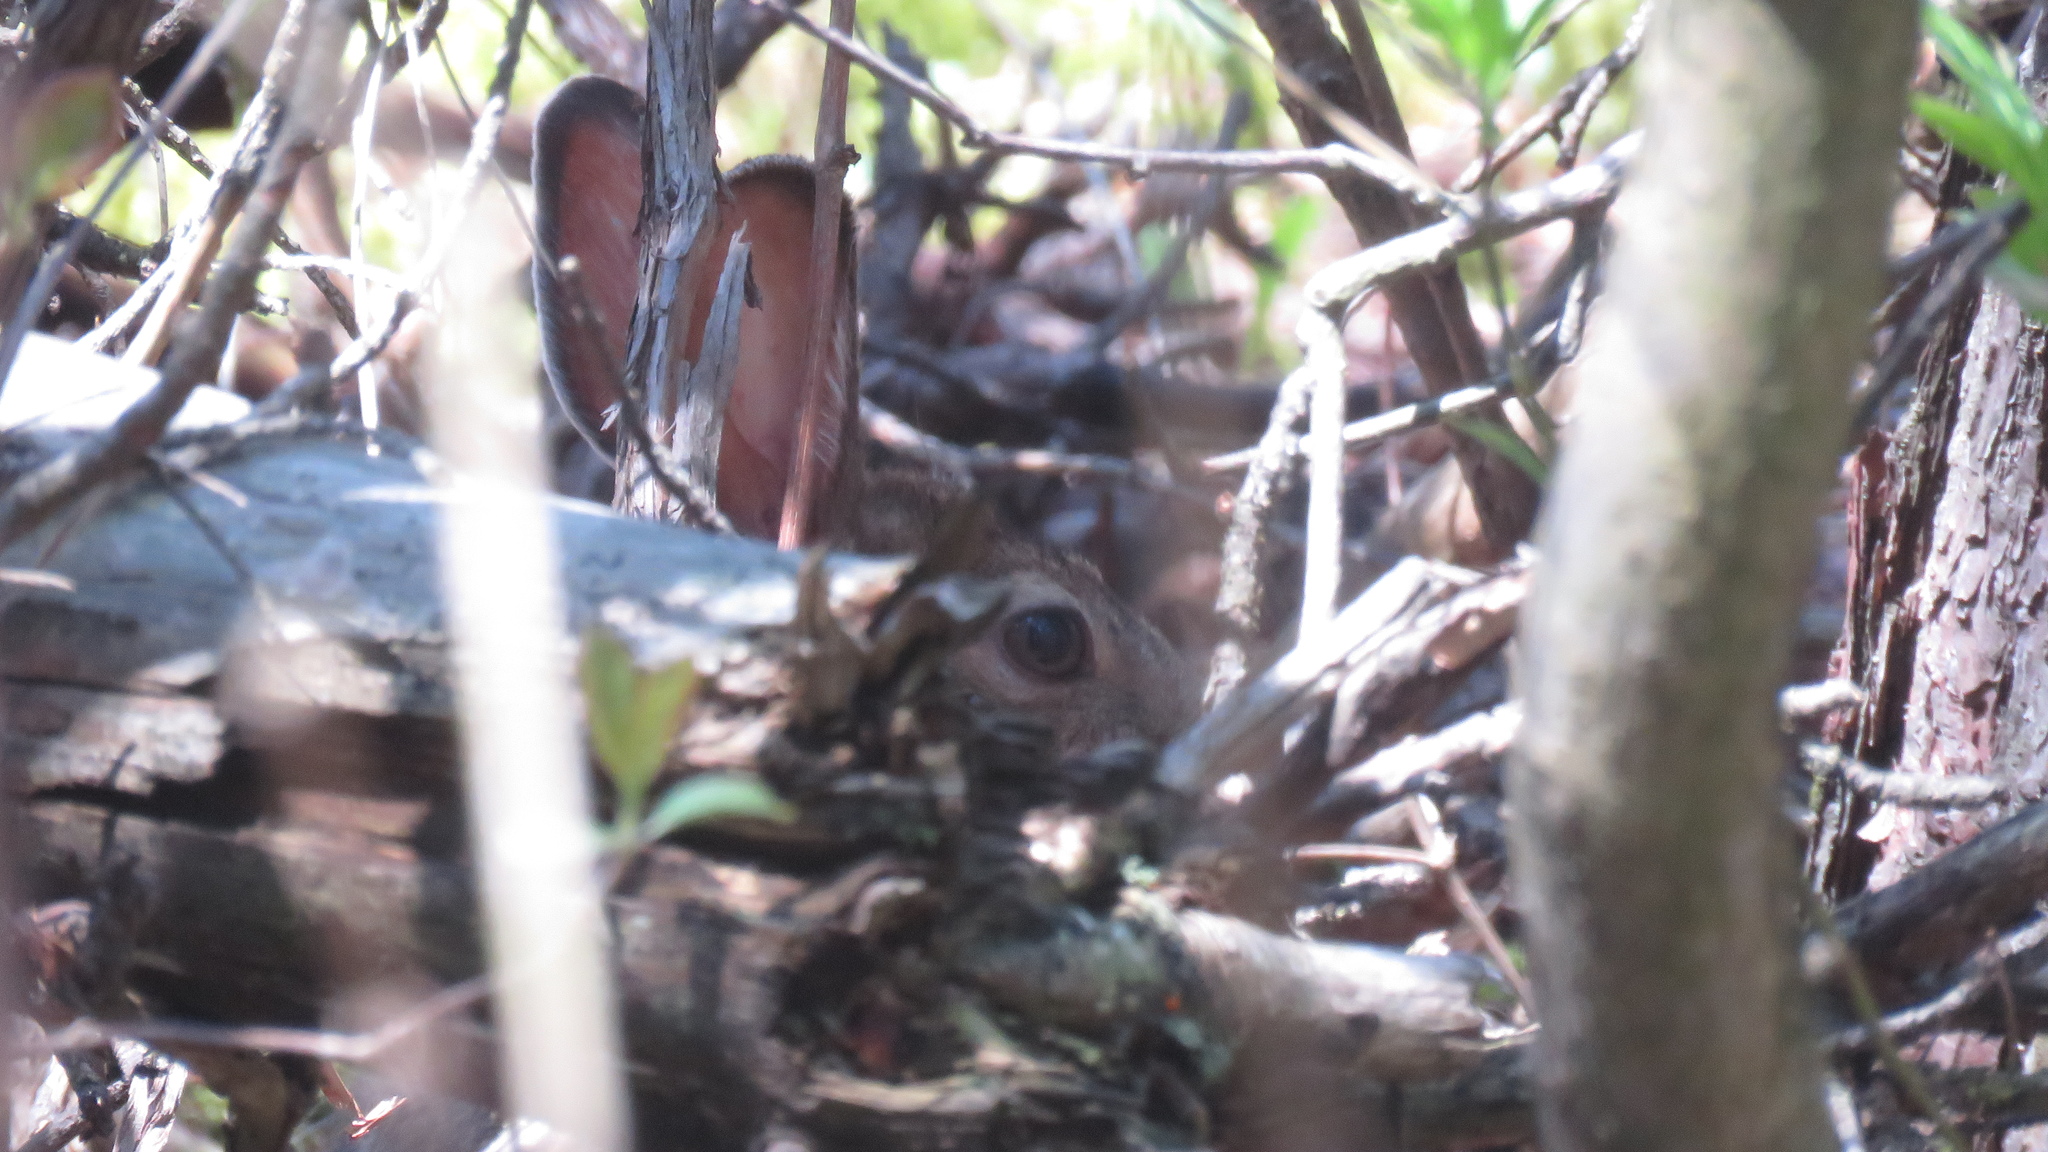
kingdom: Animalia
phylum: Chordata
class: Mammalia
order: Lagomorpha
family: Leporidae
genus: Lepus
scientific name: Lepus americanus
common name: Snowshoe hare
